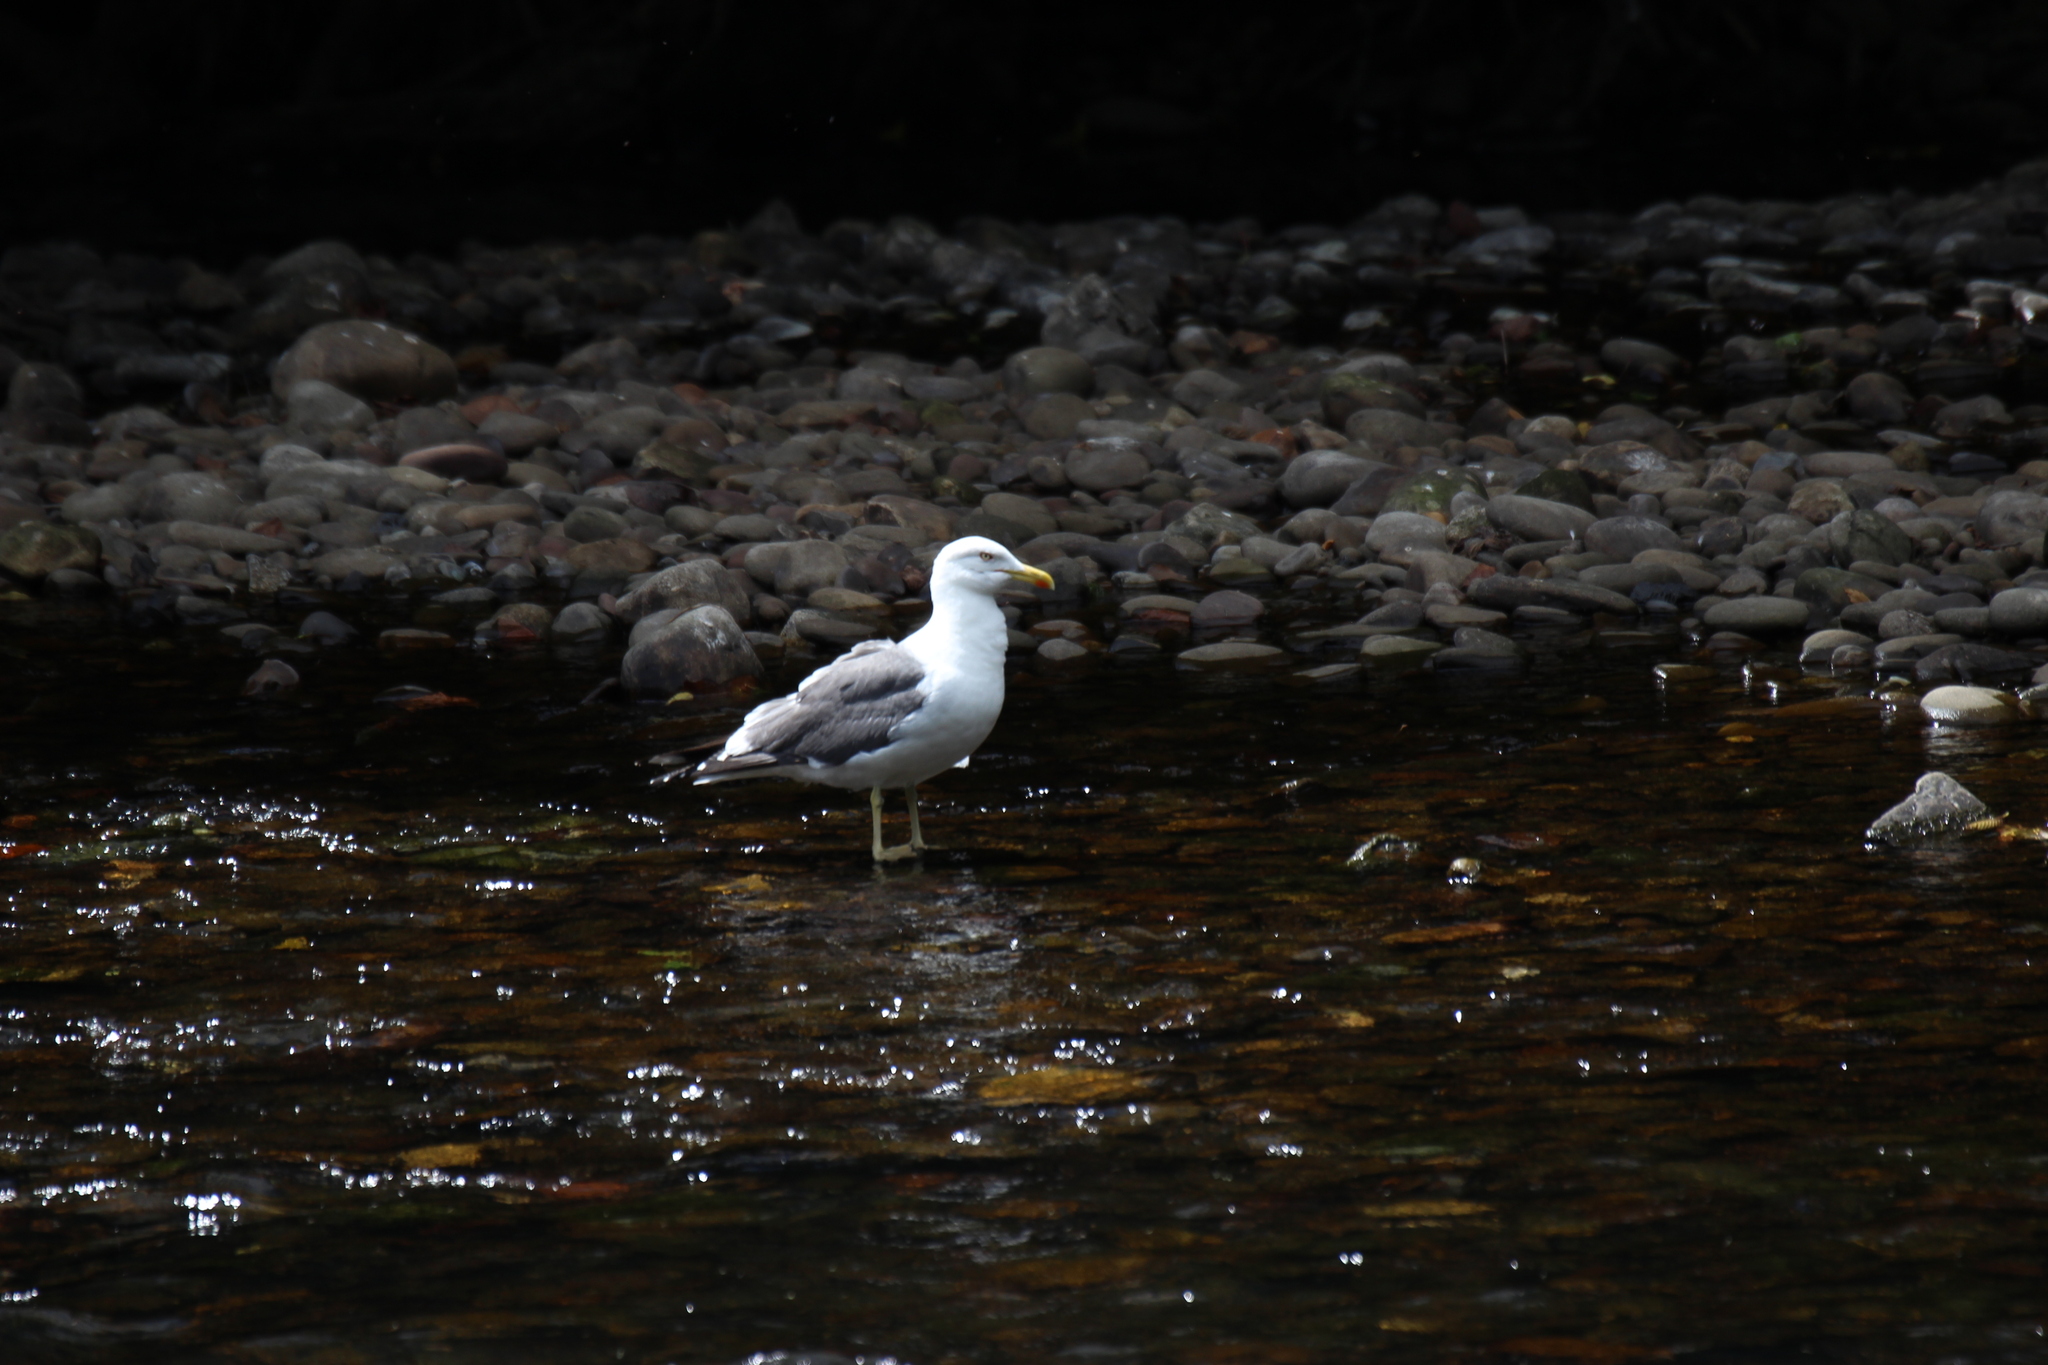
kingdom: Animalia
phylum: Chordata
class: Aves
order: Charadriiformes
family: Laridae
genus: Larus
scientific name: Larus fuscus
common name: Lesser black-backed gull
